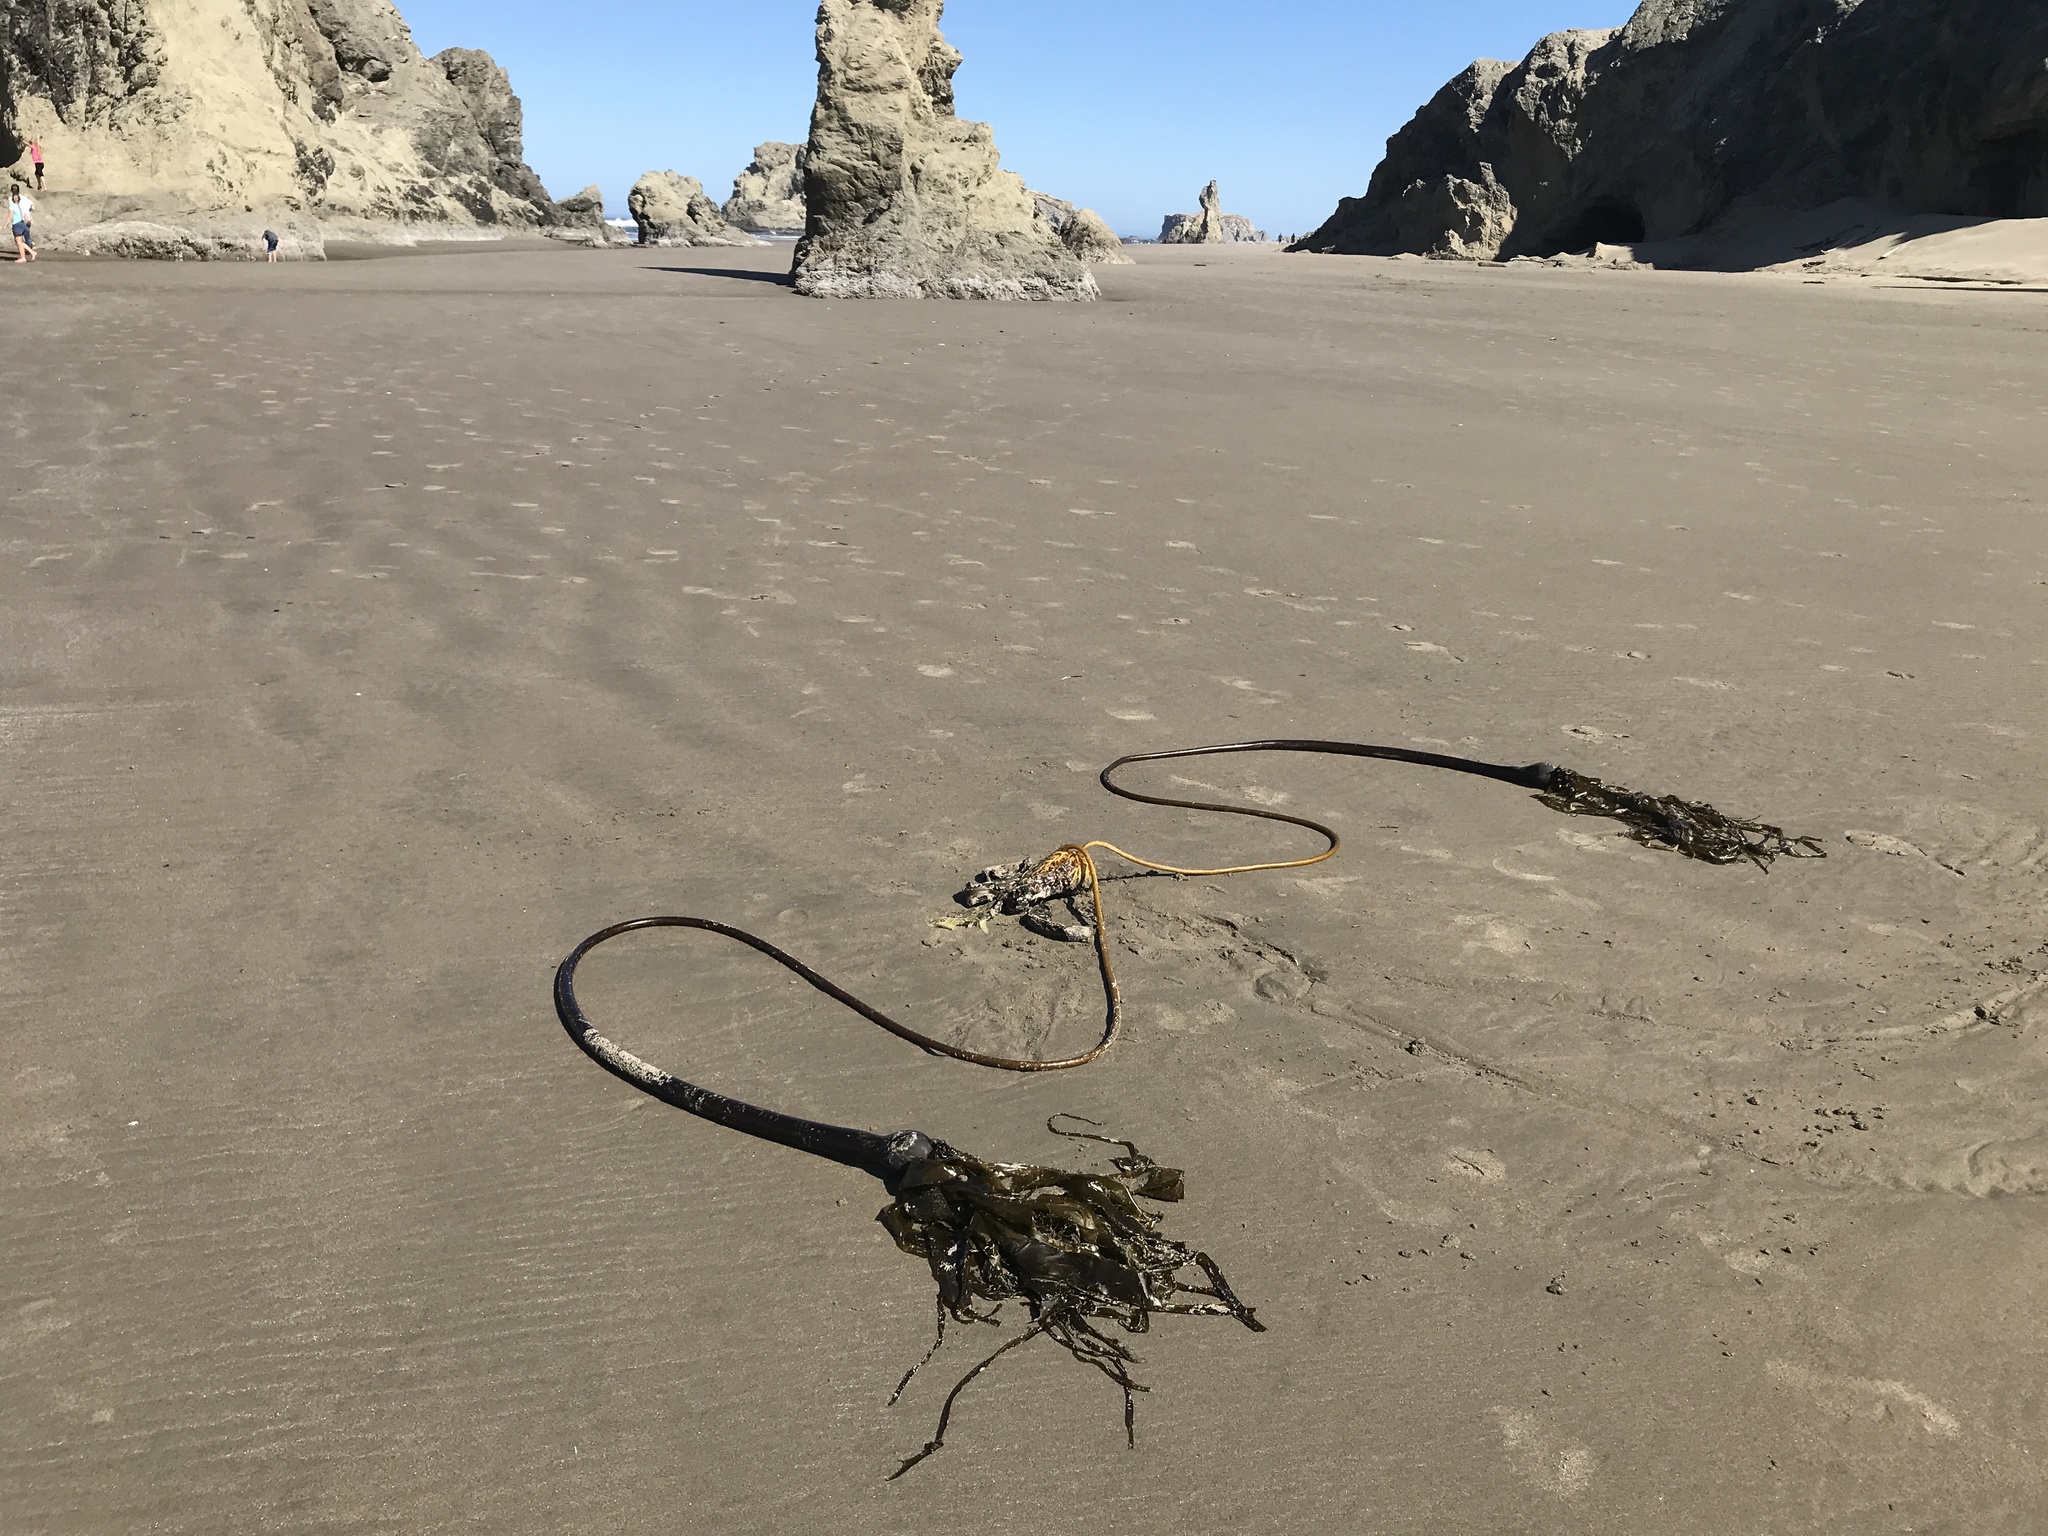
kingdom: Chromista
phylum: Ochrophyta
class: Phaeophyceae
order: Laminariales
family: Laminariaceae
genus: Nereocystis
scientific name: Nereocystis luetkeana
